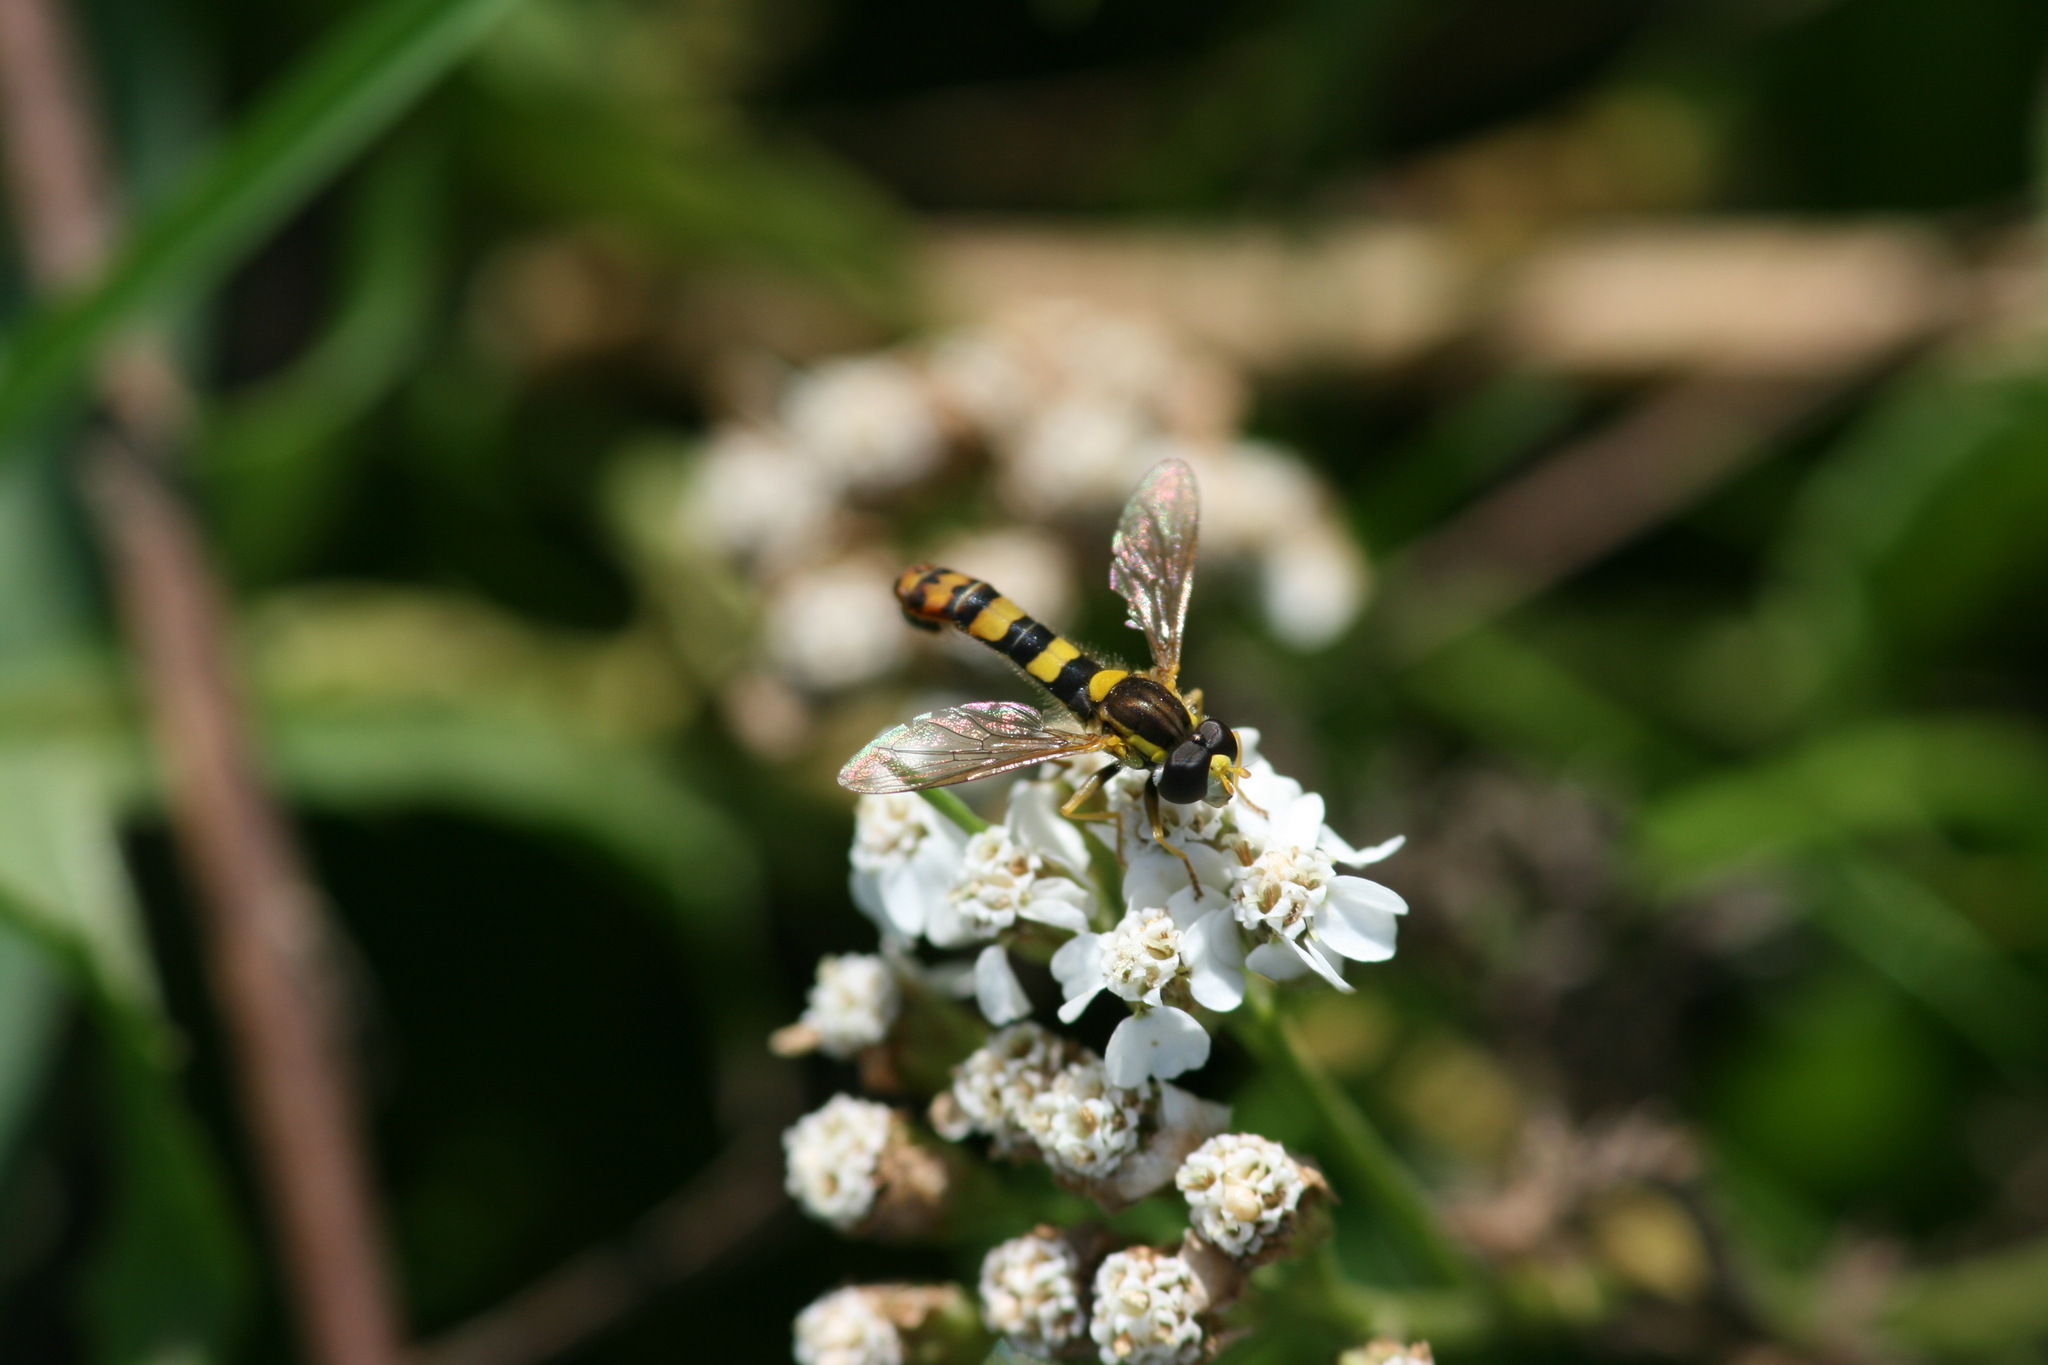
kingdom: Animalia
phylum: Arthropoda
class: Insecta
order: Diptera
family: Syrphidae
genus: Sphaerophoria
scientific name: Sphaerophoria scripta
